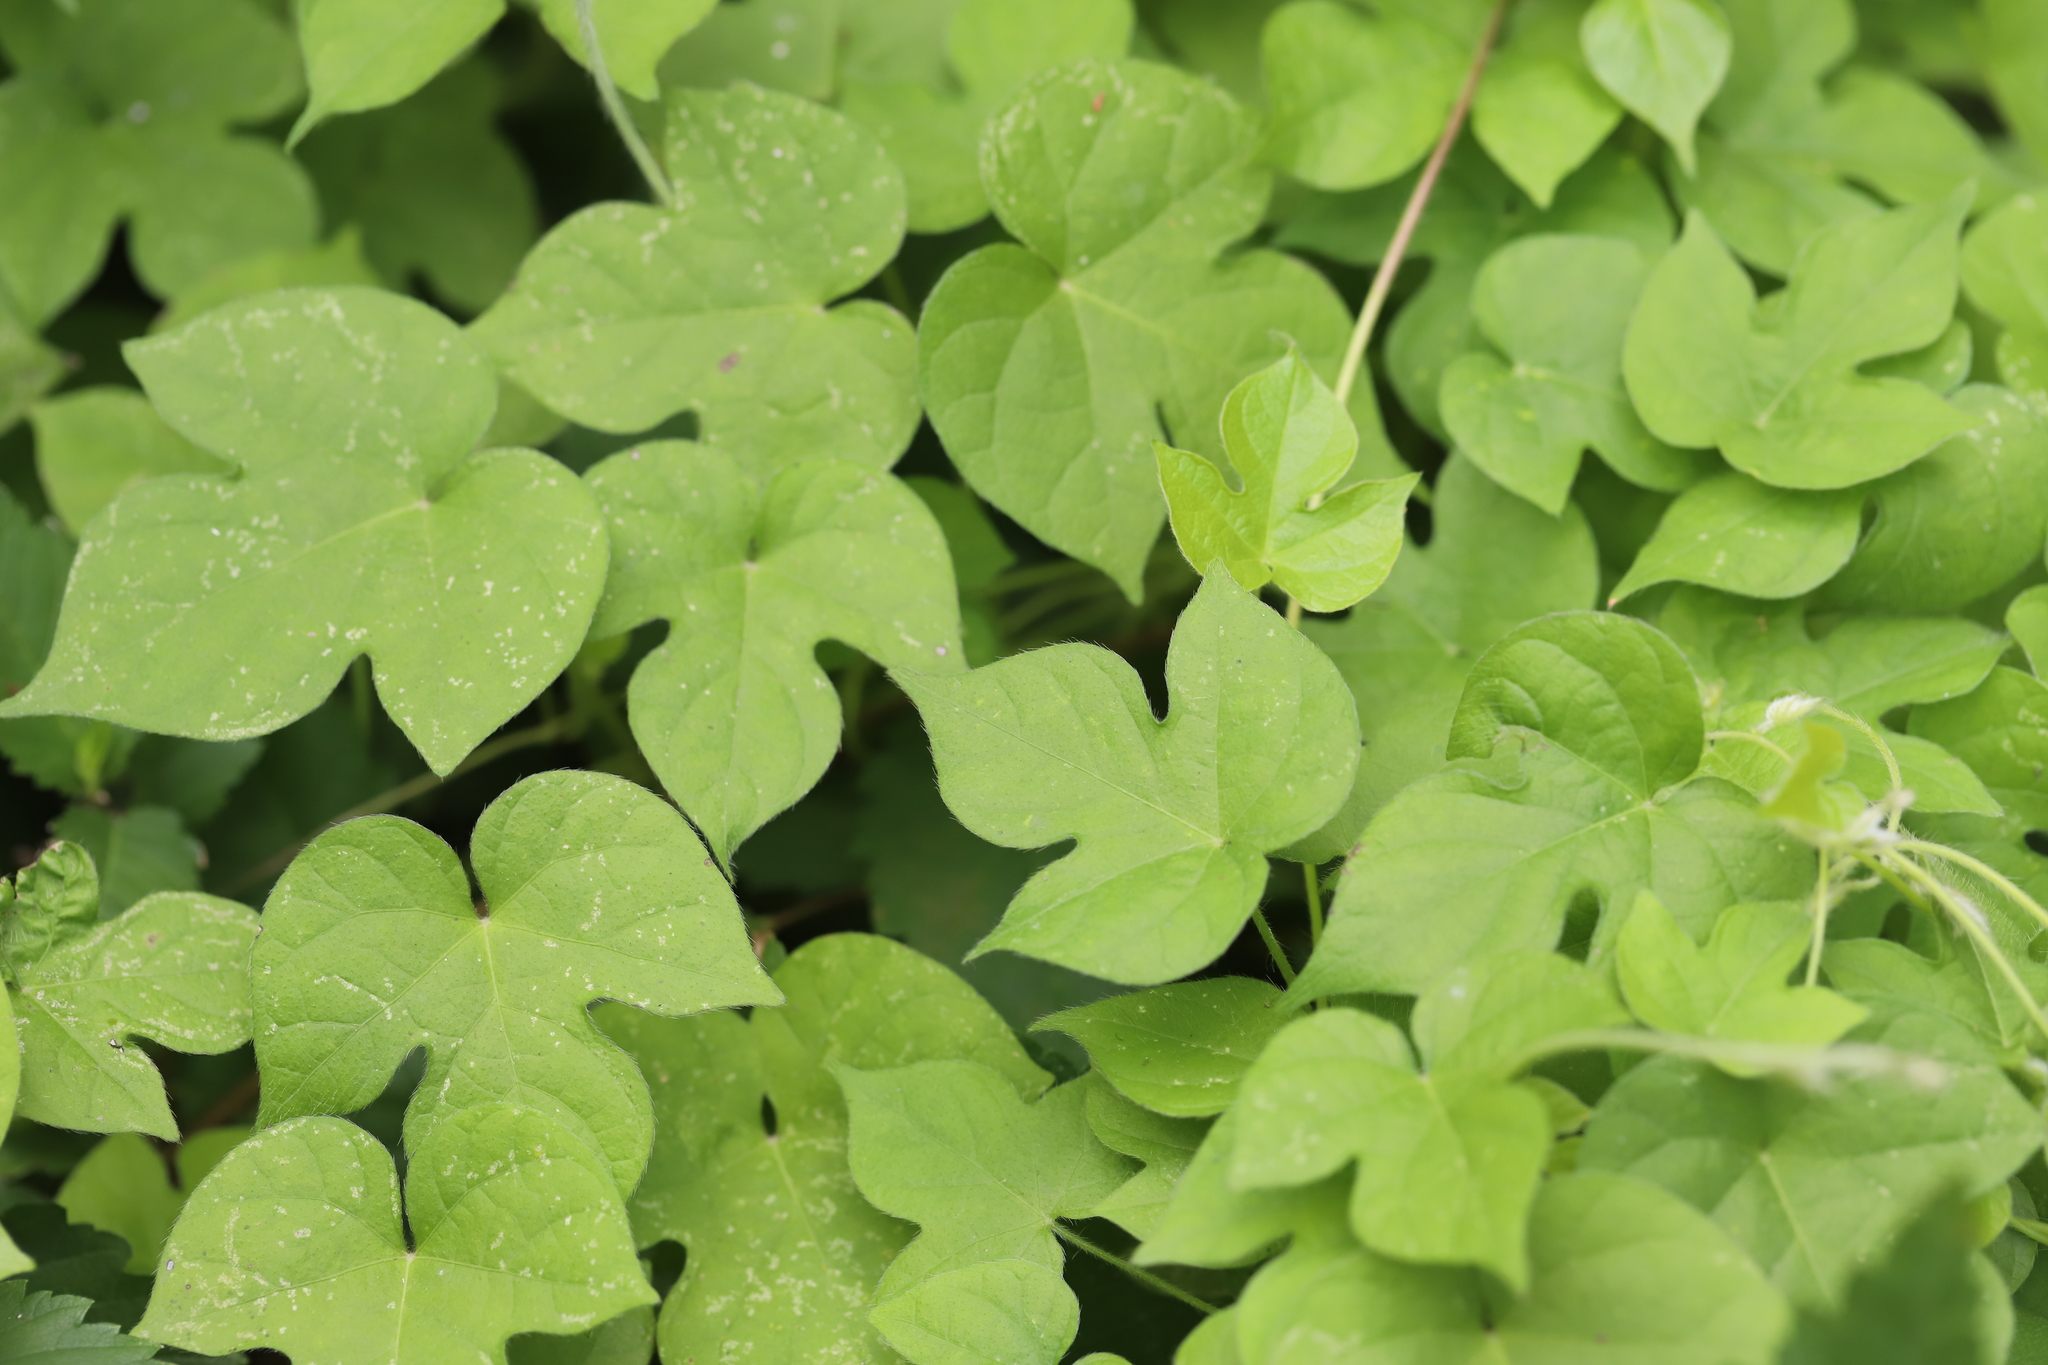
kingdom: Plantae
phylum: Tracheophyta
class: Magnoliopsida
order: Solanales
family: Convolvulaceae
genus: Ipomoea
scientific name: Ipomoea hederacea
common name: Ivy-leaved morning-glory
